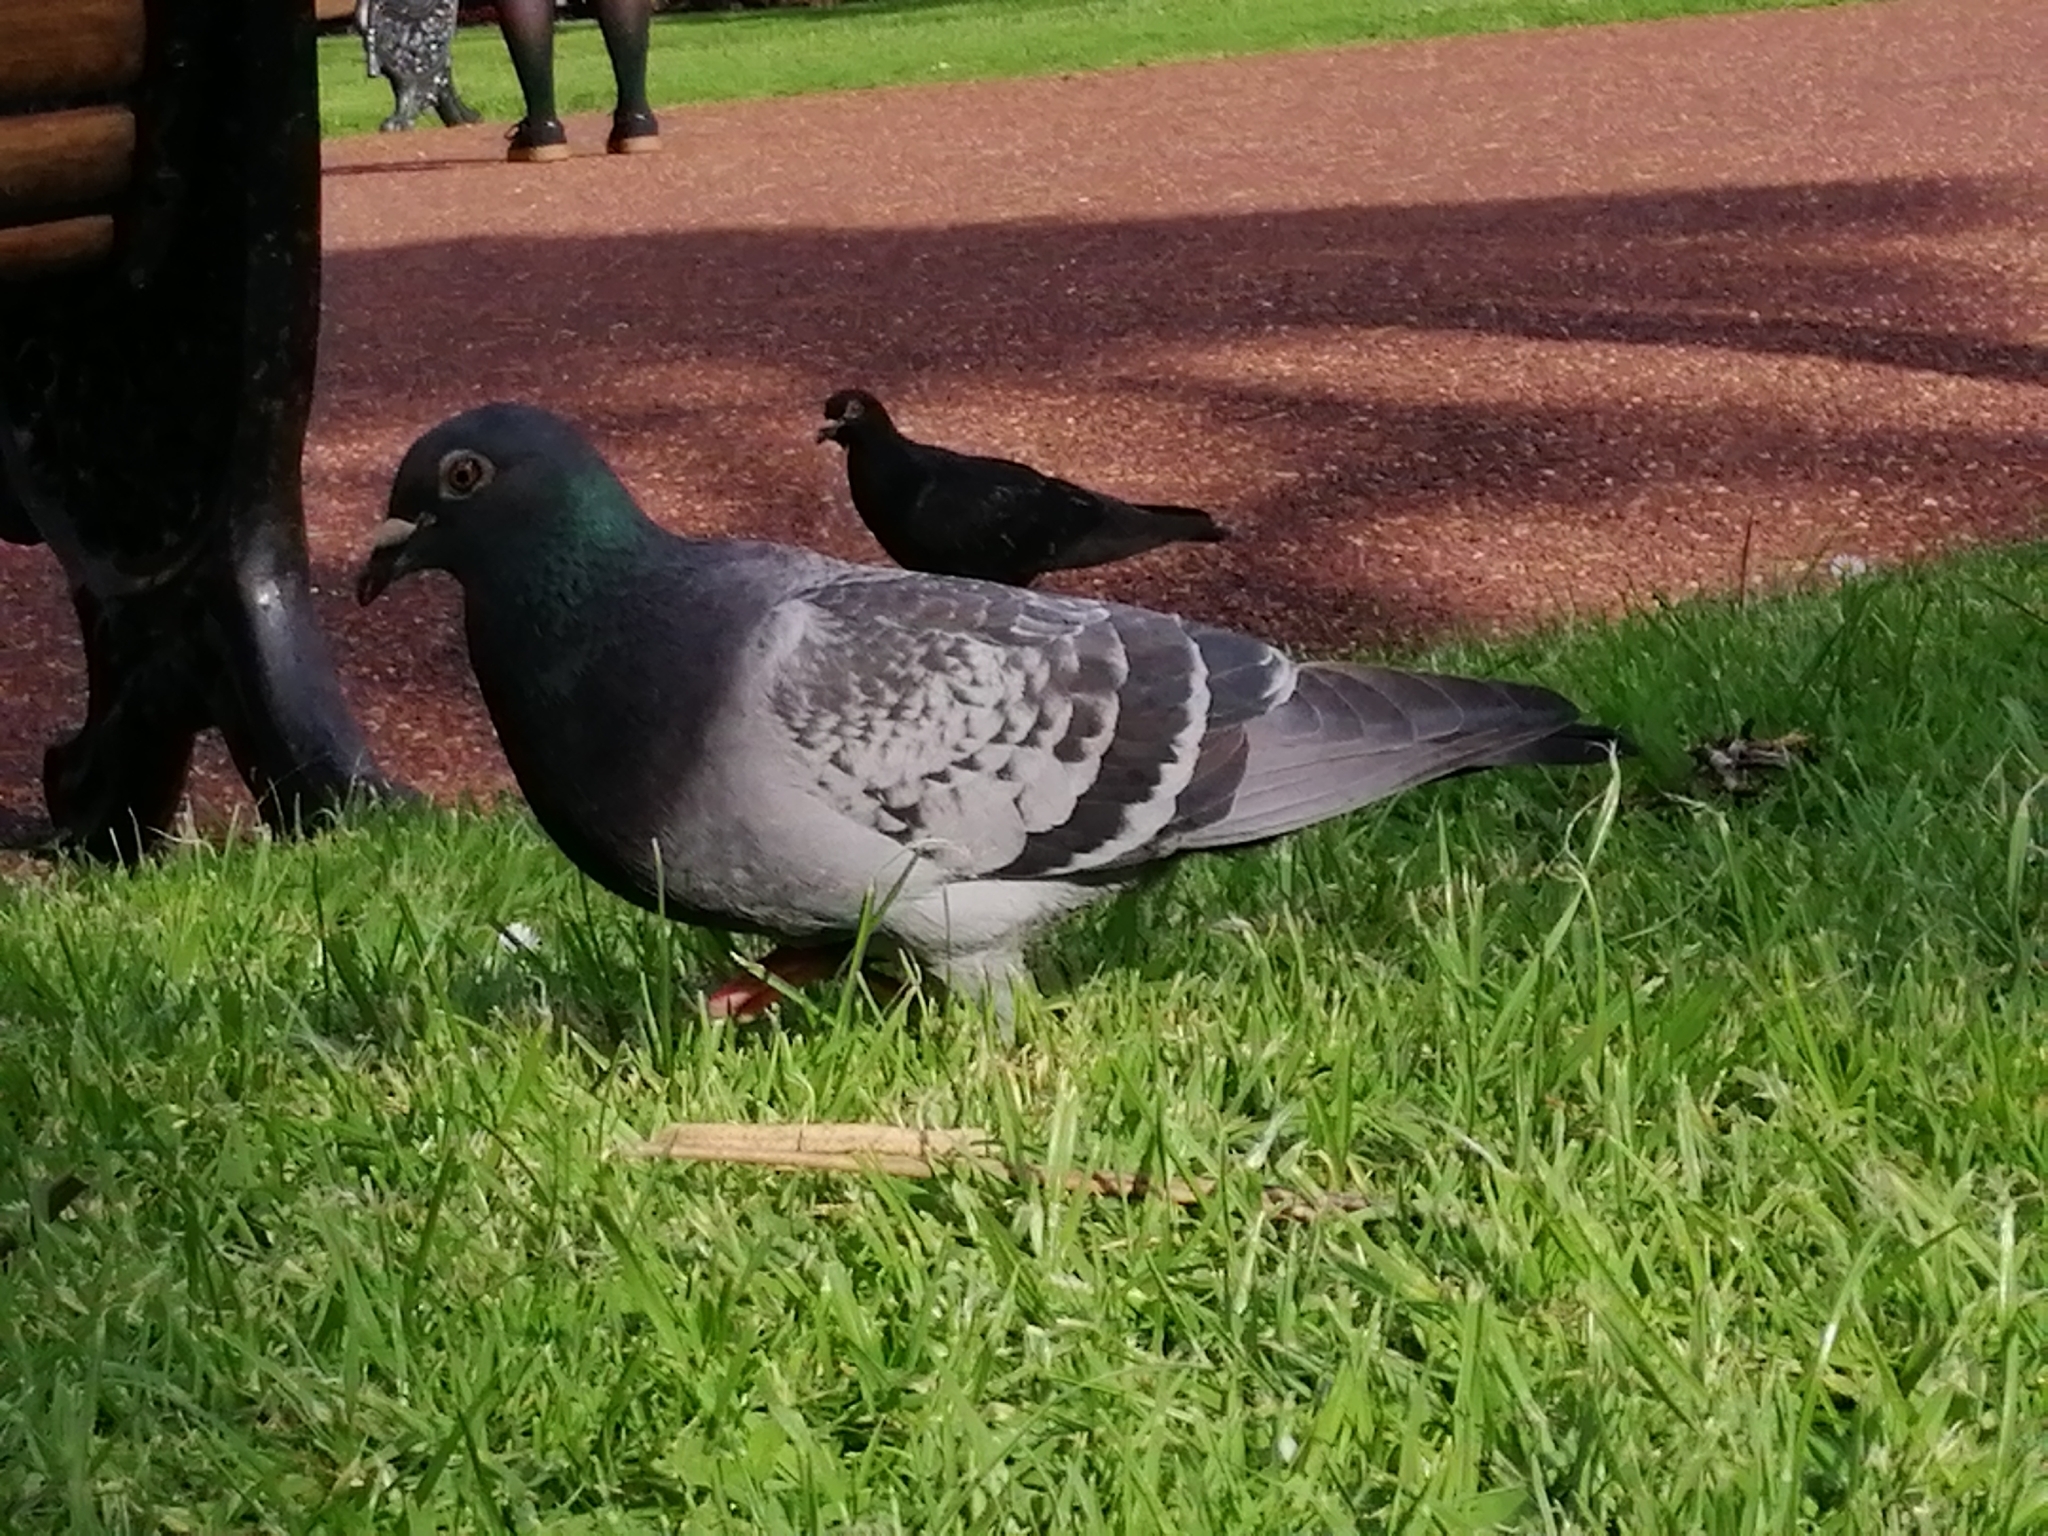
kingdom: Animalia
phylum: Chordata
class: Aves
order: Columbiformes
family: Columbidae
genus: Columba
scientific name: Columba livia
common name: Rock pigeon
